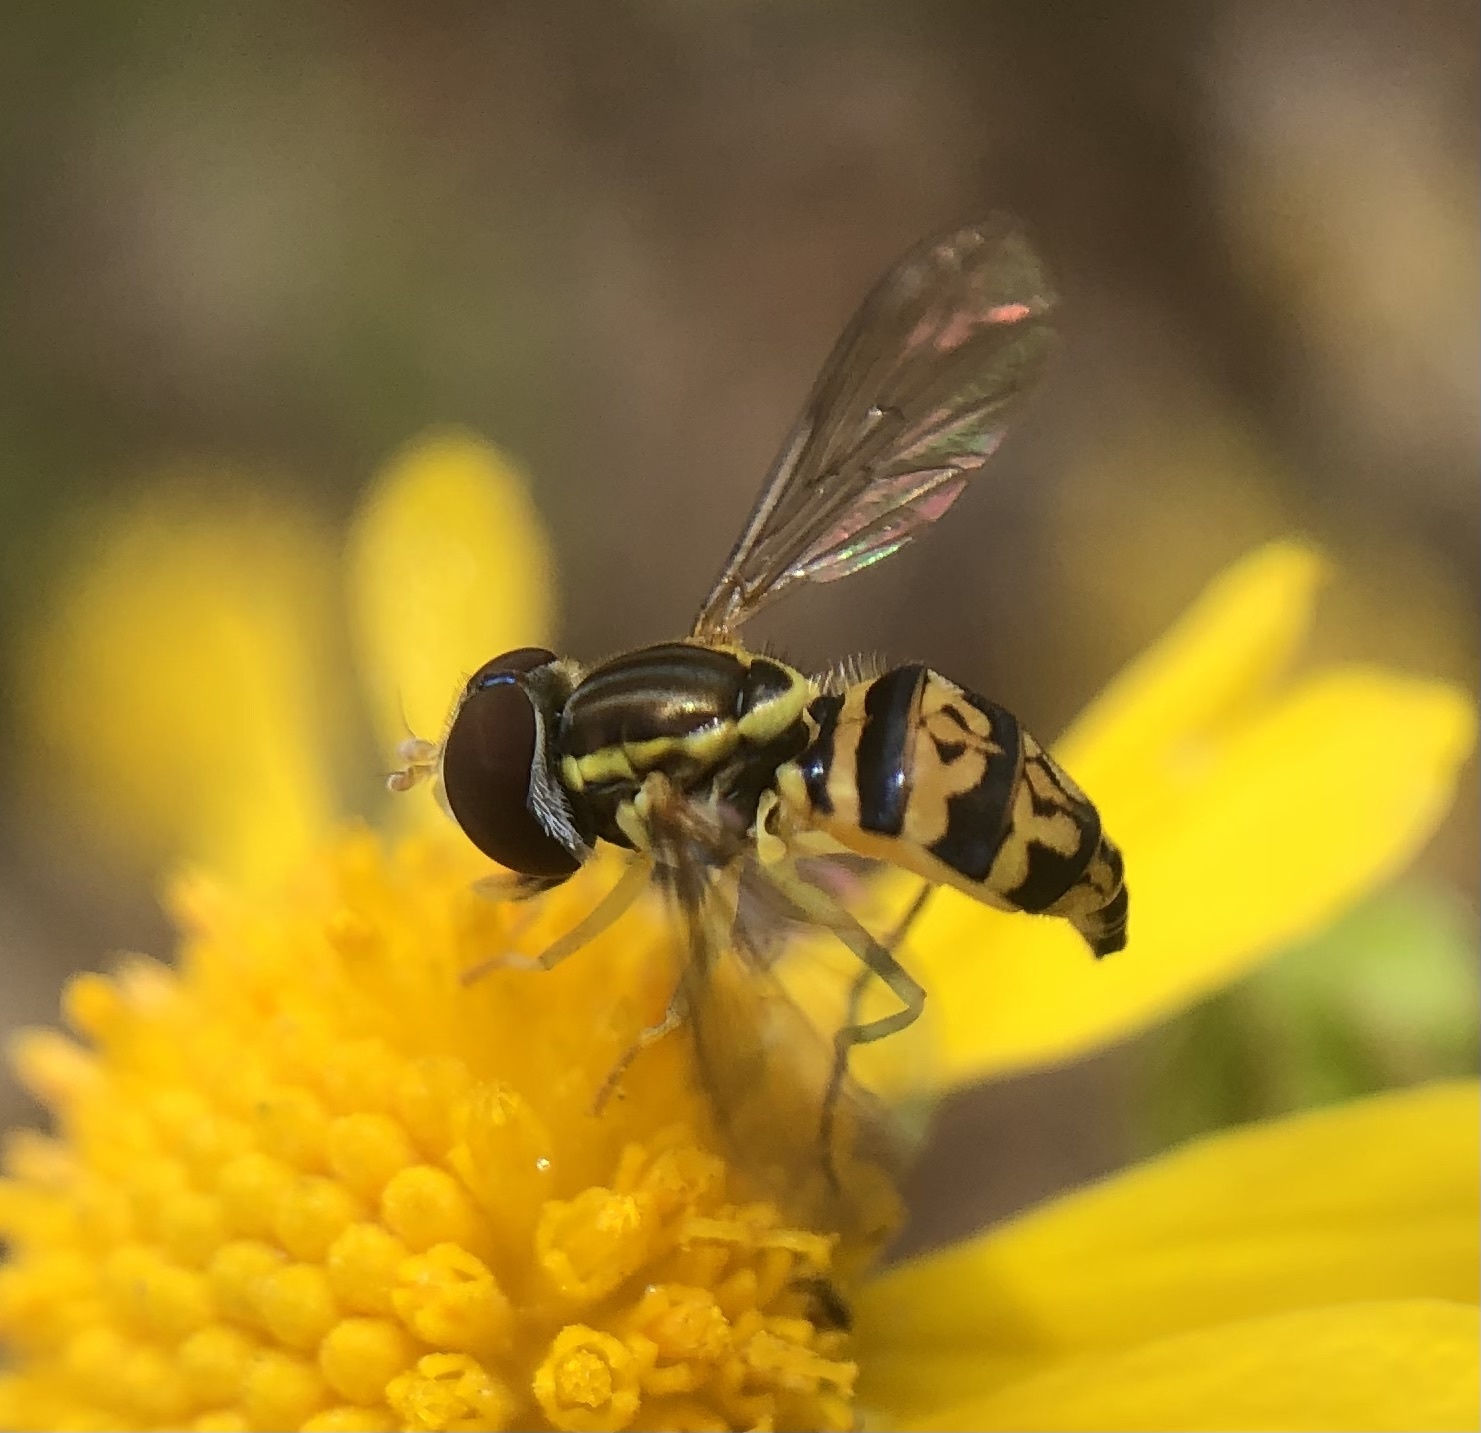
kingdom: Animalia
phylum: Arthropoda
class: Insecta
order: Diptera
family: Syrphidae
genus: Toxomerus
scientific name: Toxomerus geminatus
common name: Eastern calligrapher
